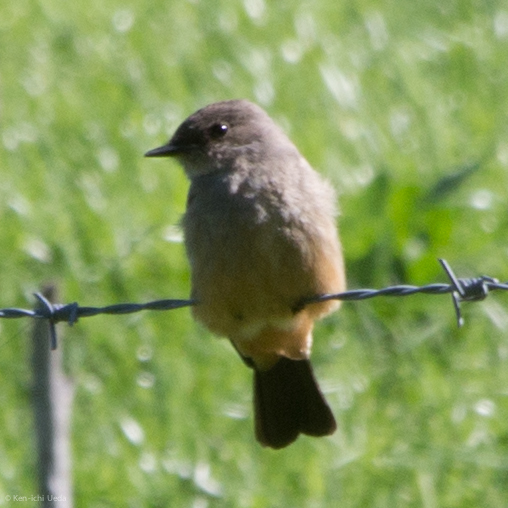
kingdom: Animalia
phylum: Chordata
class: Aves
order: Passeriformes
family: Tyrannidae
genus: Sayornis
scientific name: Sayornis saya
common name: Say's phoebe
